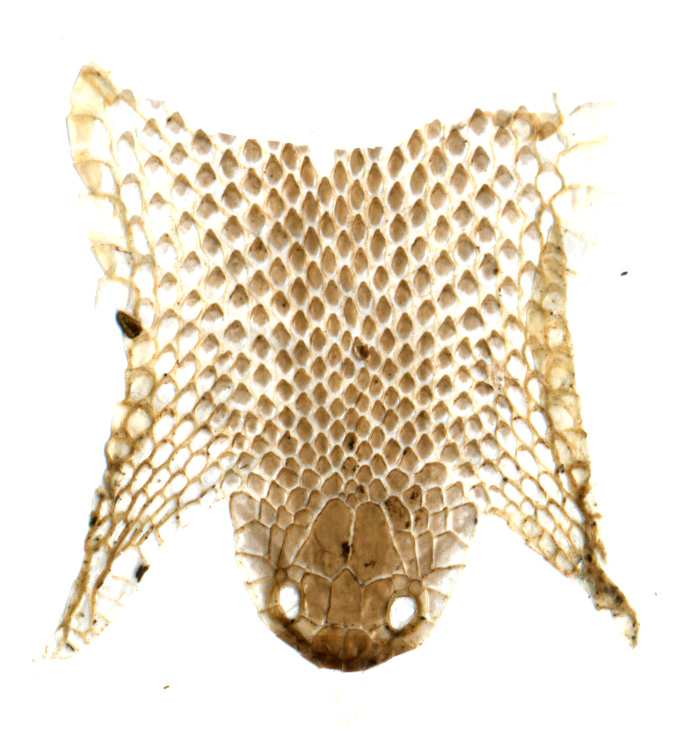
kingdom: Animalia
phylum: Chordata
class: Squamata
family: Colubridae
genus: Oocatochus
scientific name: Oocatochus rufodorsatus
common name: Frog-eating rat snake
